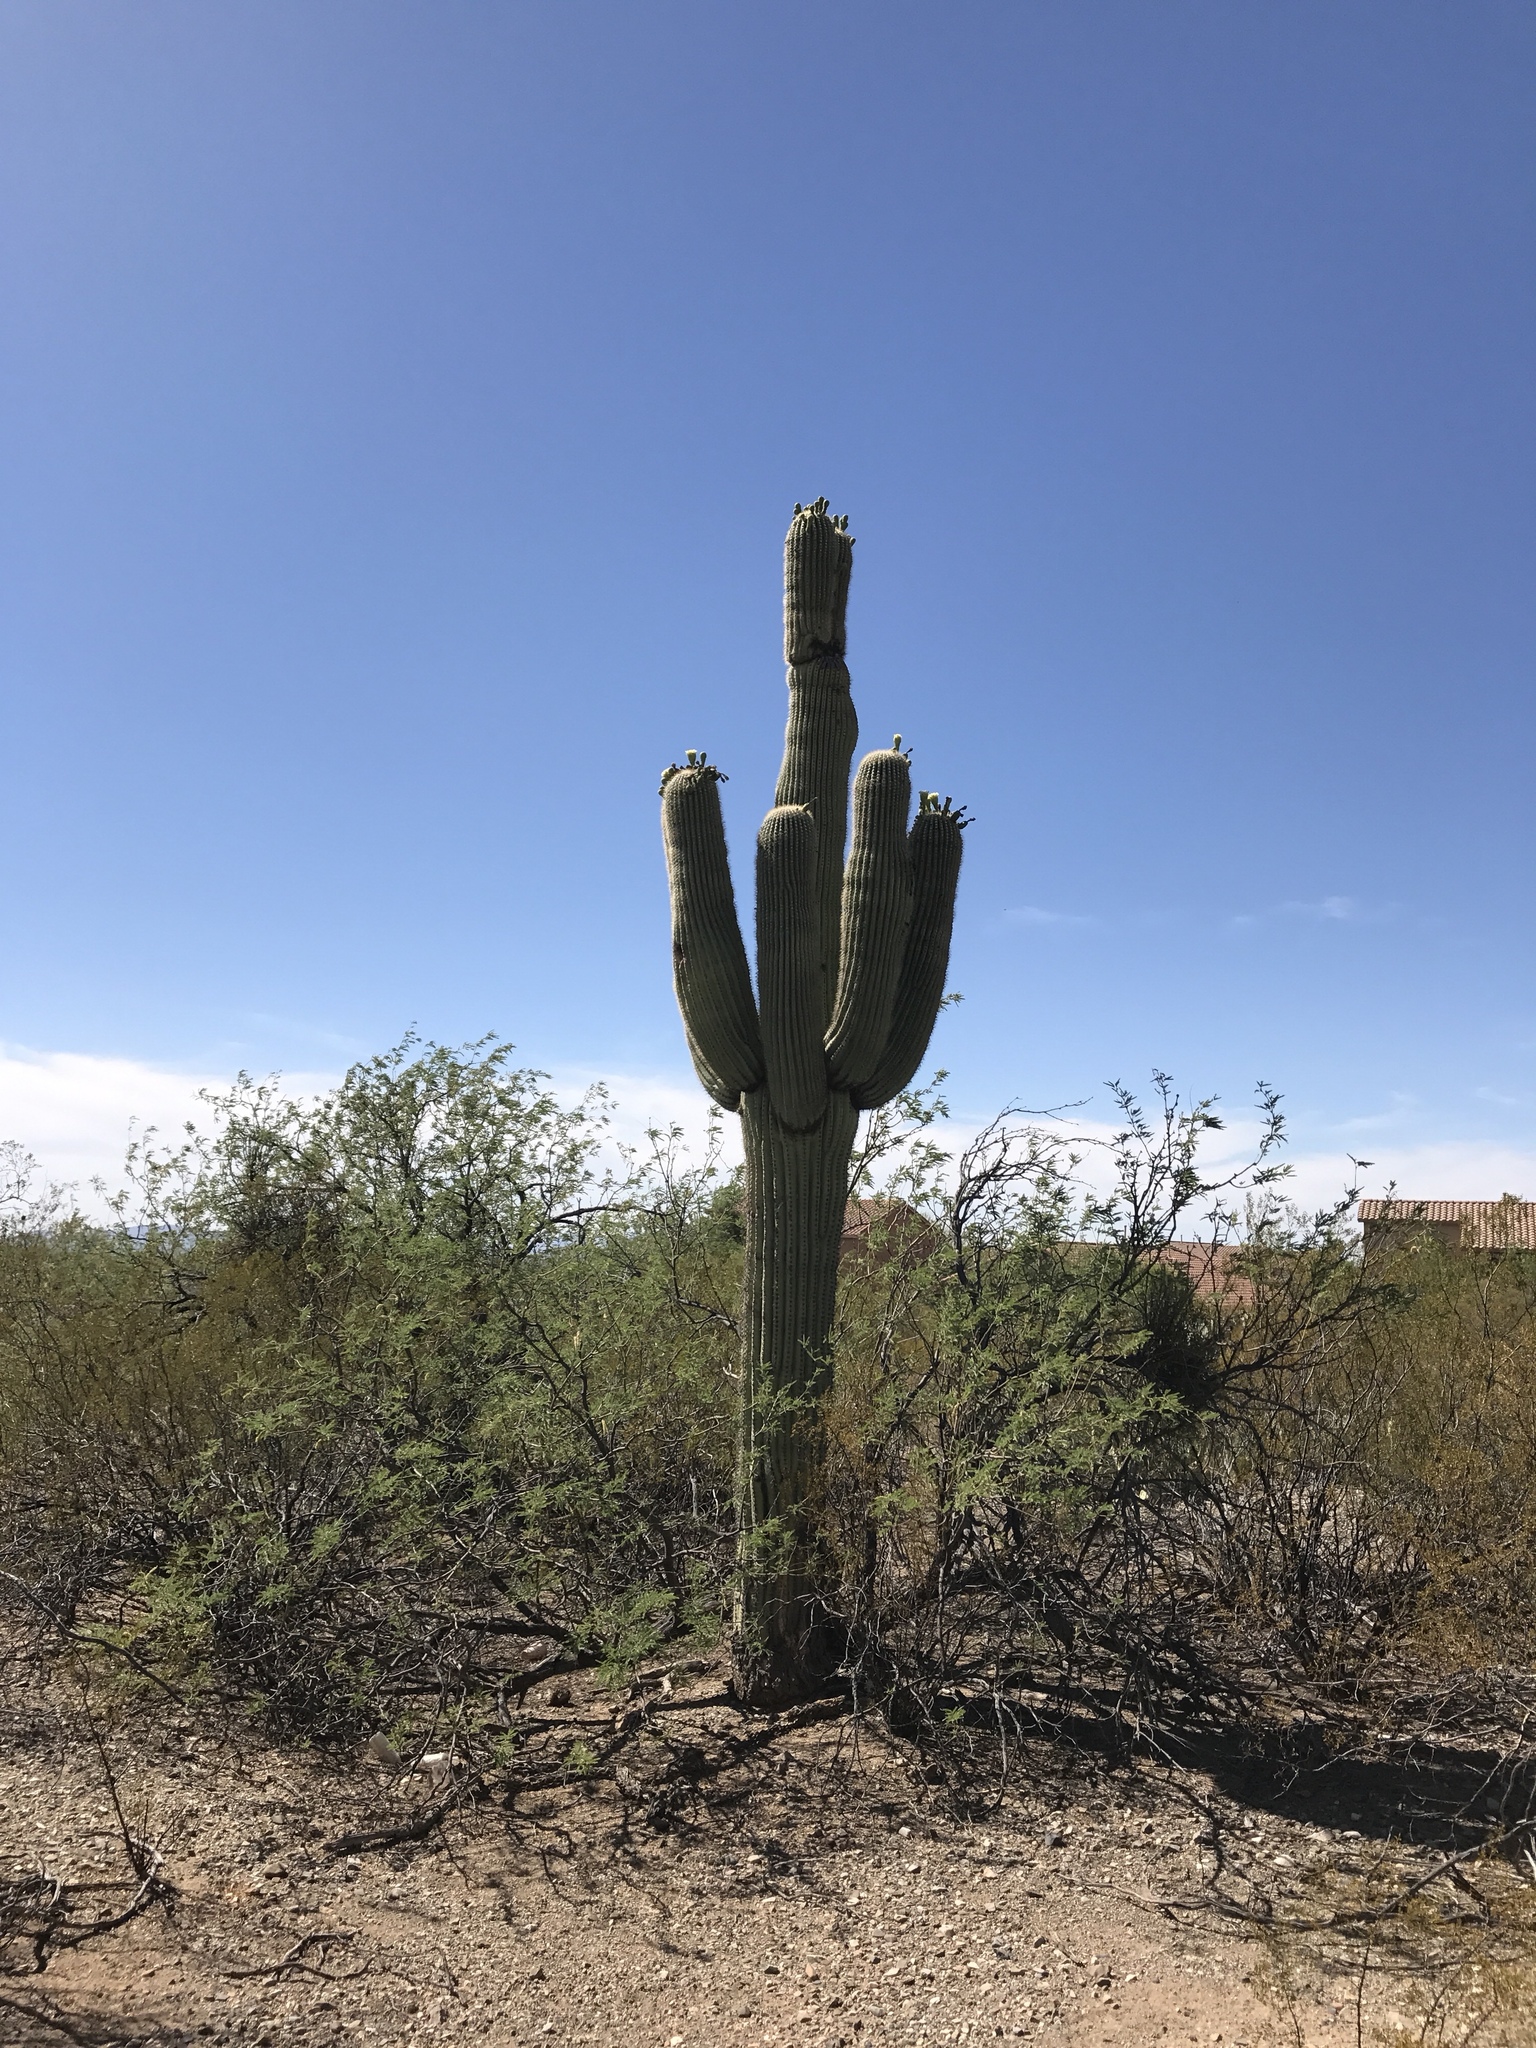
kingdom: Plantae
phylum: Tracheophyta
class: Magnoliopsida
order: Caryophyllales
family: Cactaceae
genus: Carnegiea
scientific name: Carnegiea gigantea
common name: Saguaro
